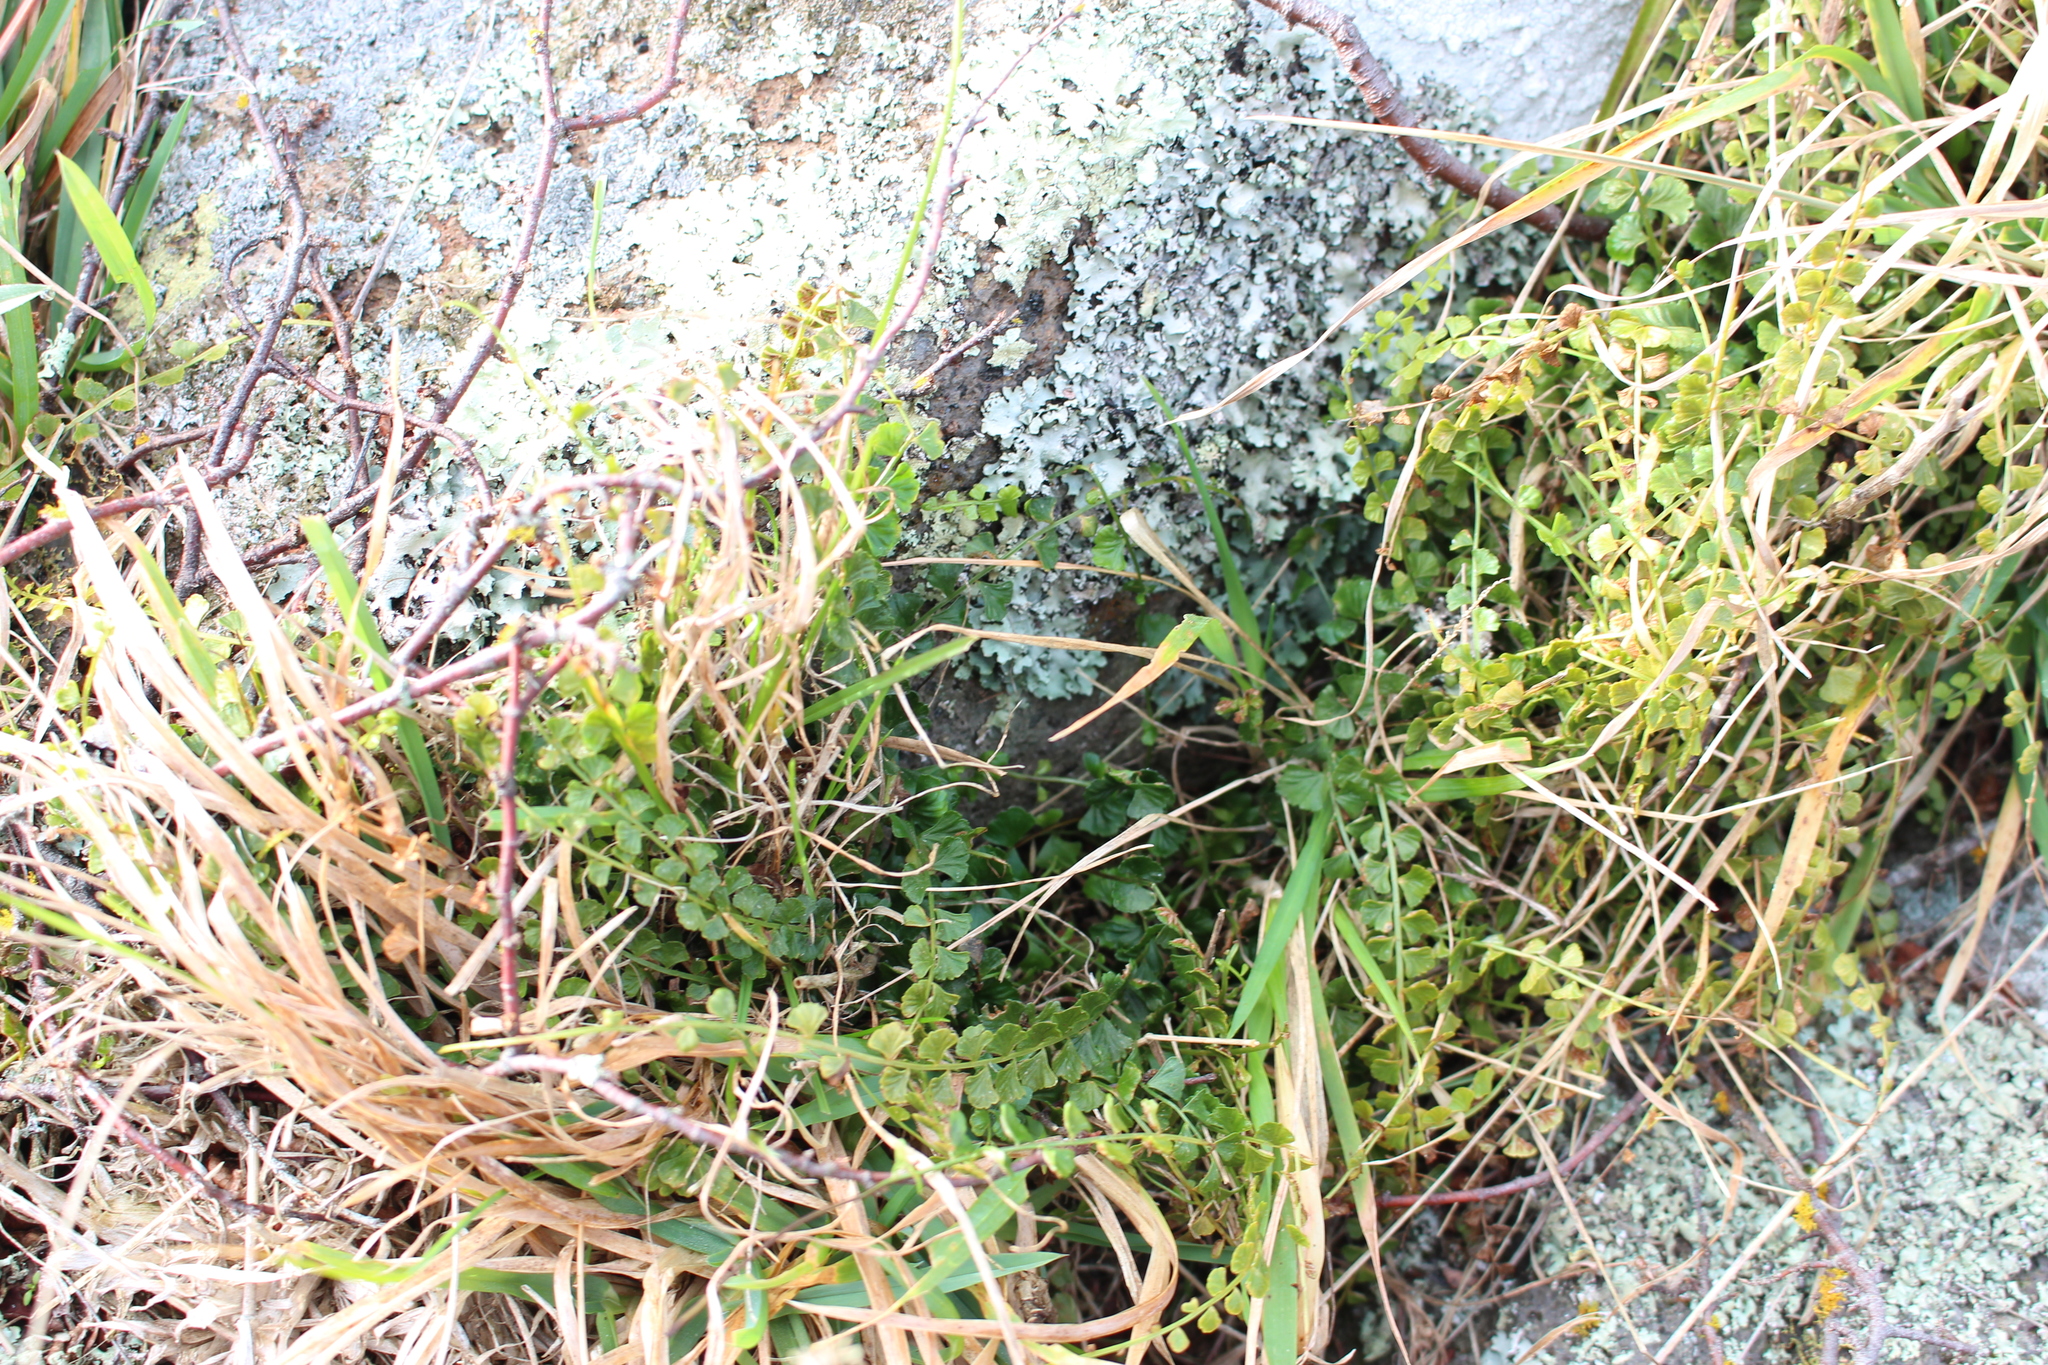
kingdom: Plantae
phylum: Tracheophyta
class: Polypodiopsida
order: Polypodiales
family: Aspleniaceae
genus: Asplenium
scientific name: Asplenium flabellifolium
